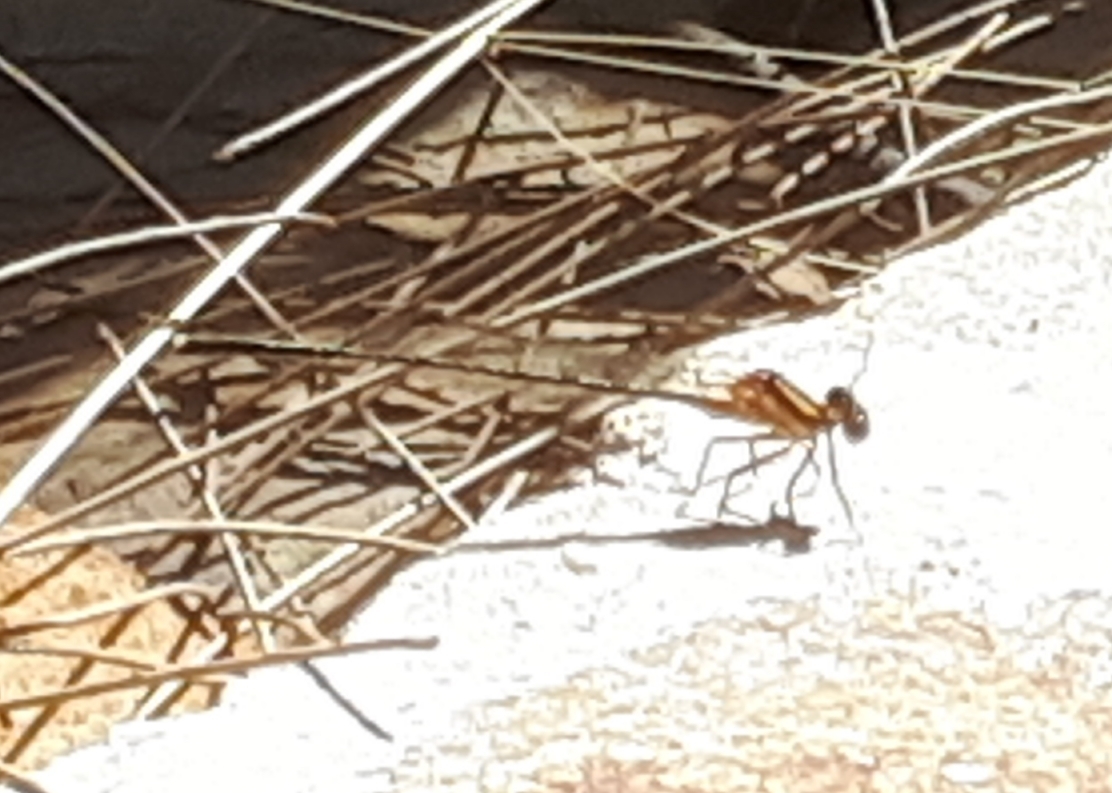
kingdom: Animalia
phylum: Arthropoda
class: Insecta
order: Odonata
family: Platycnemididae
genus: Nososticta
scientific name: Nososticta solida
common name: Orange threadtail
